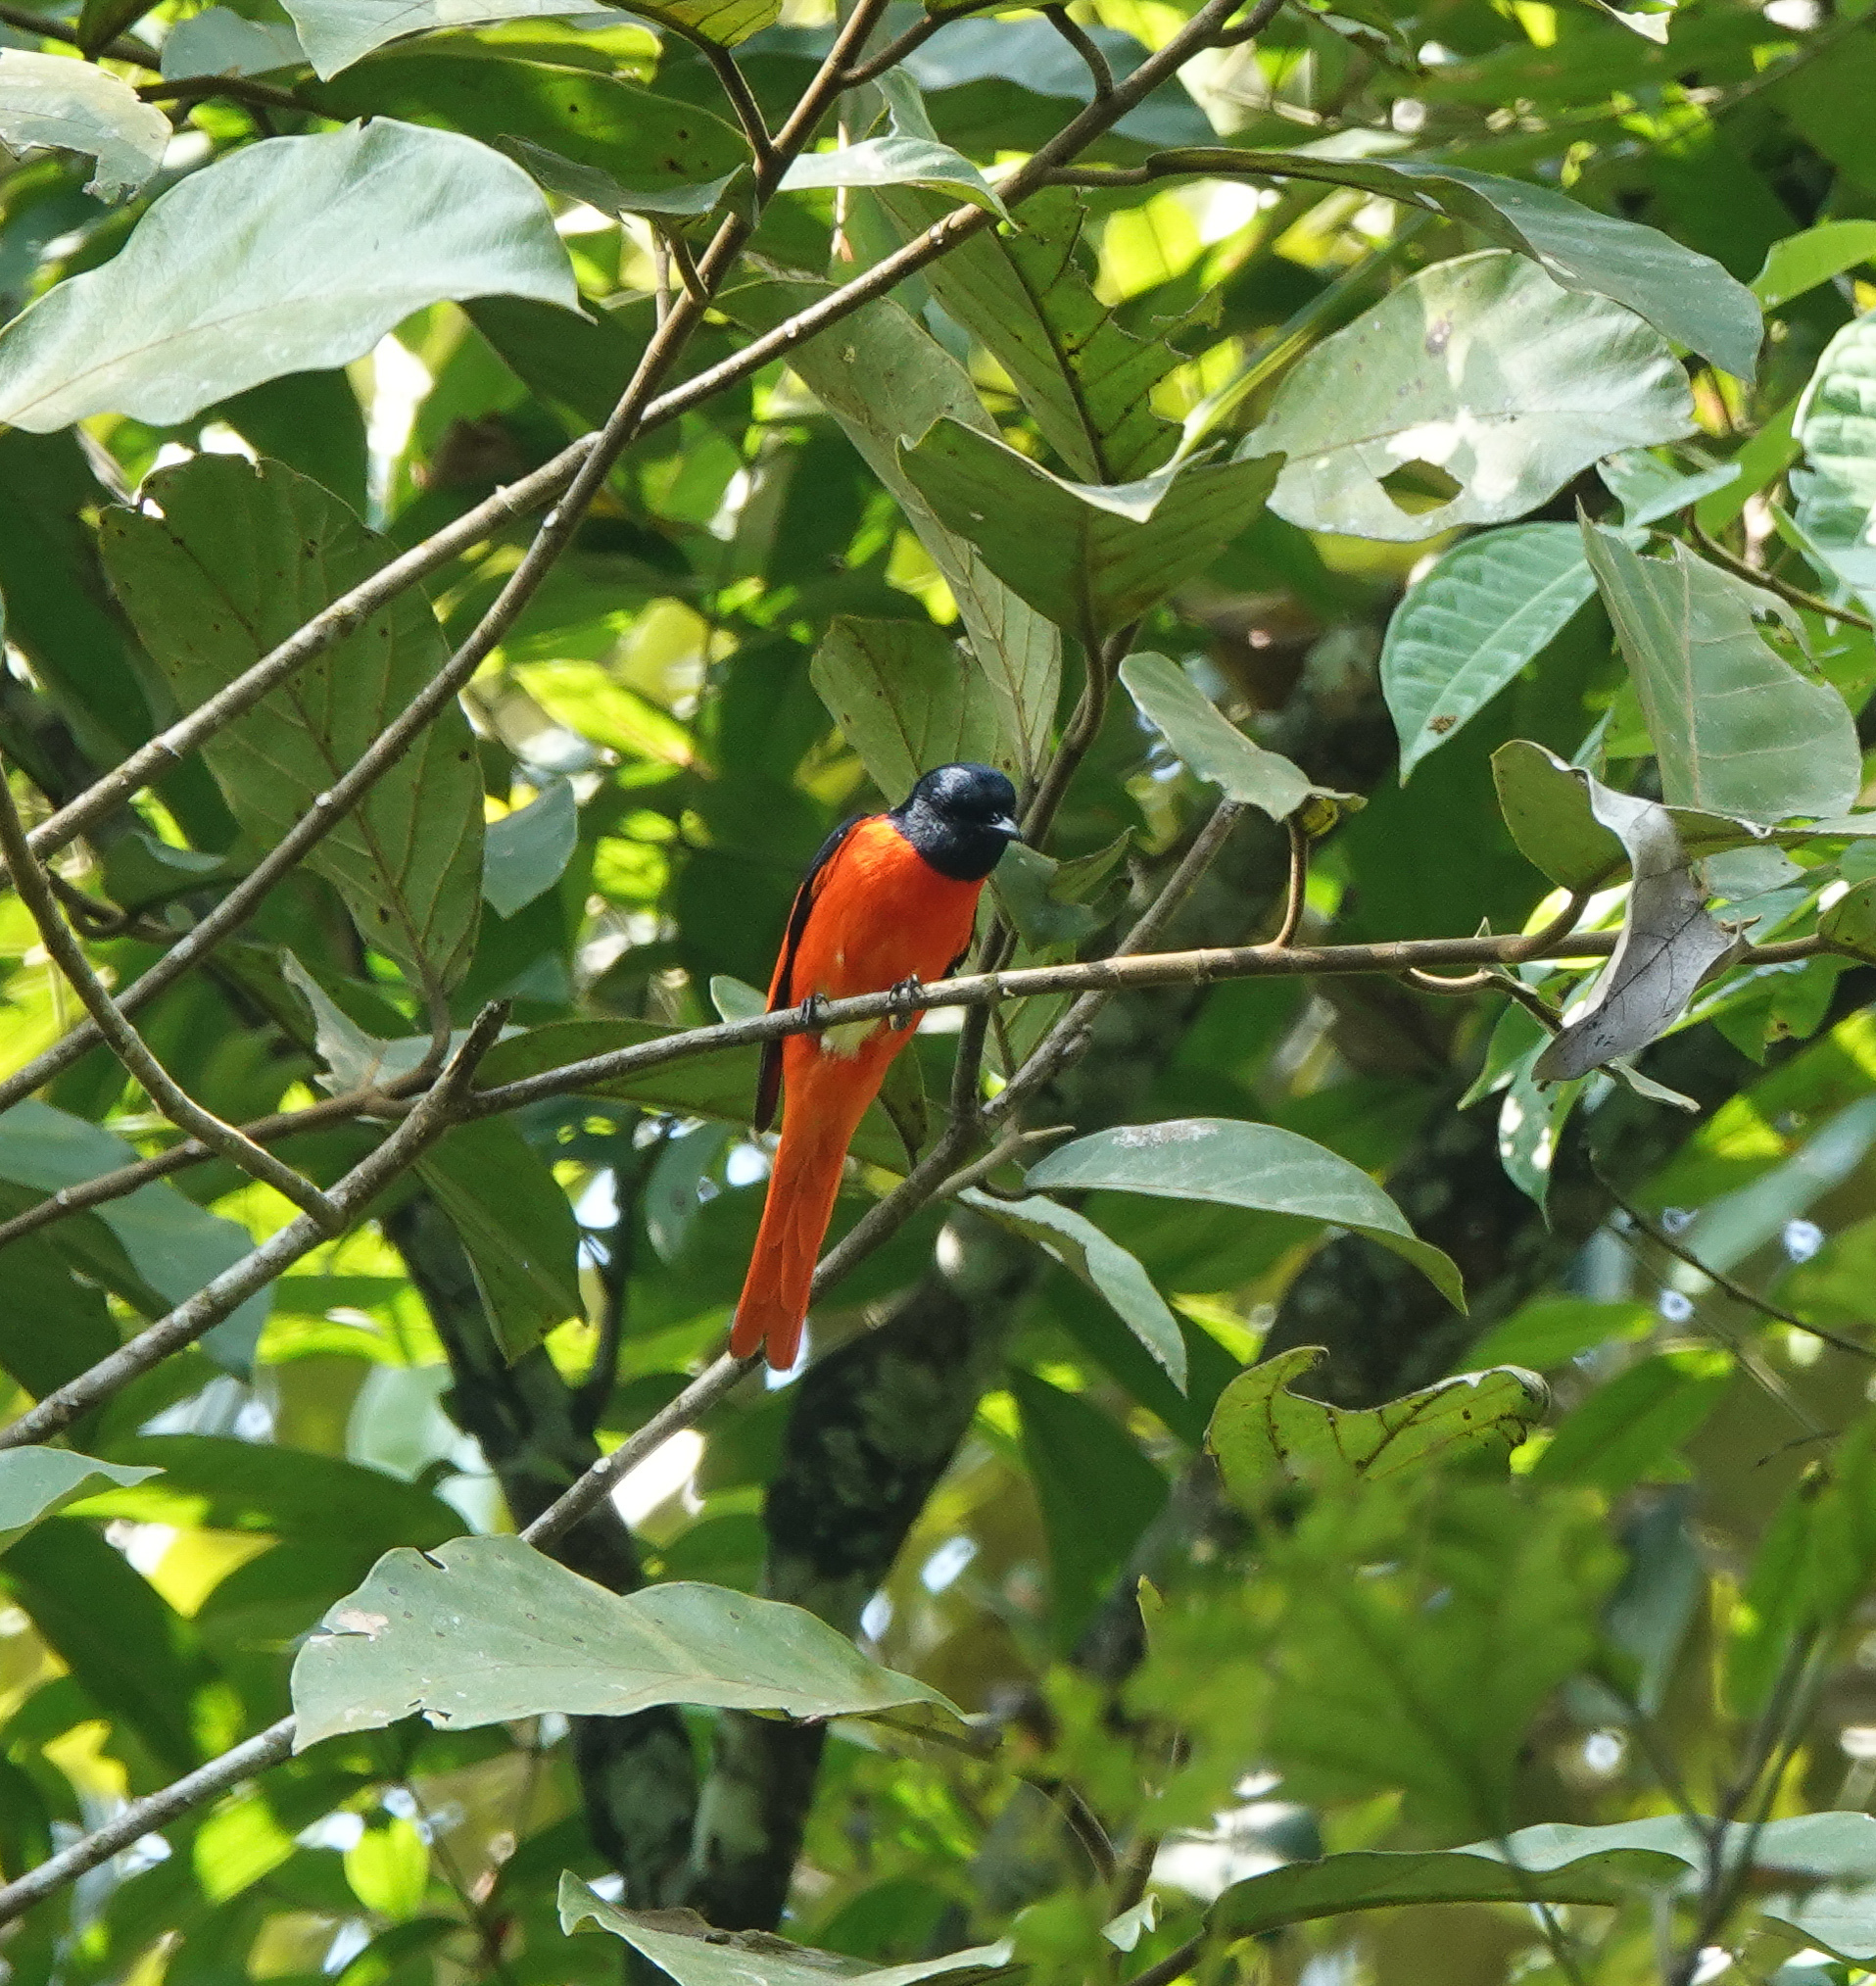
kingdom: Animalia
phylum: Chordata
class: Aves
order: Passeriformes
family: Campephagidae
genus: Pericrocotus
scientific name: Pericrocotus speciosus
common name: Scarlet minivet
